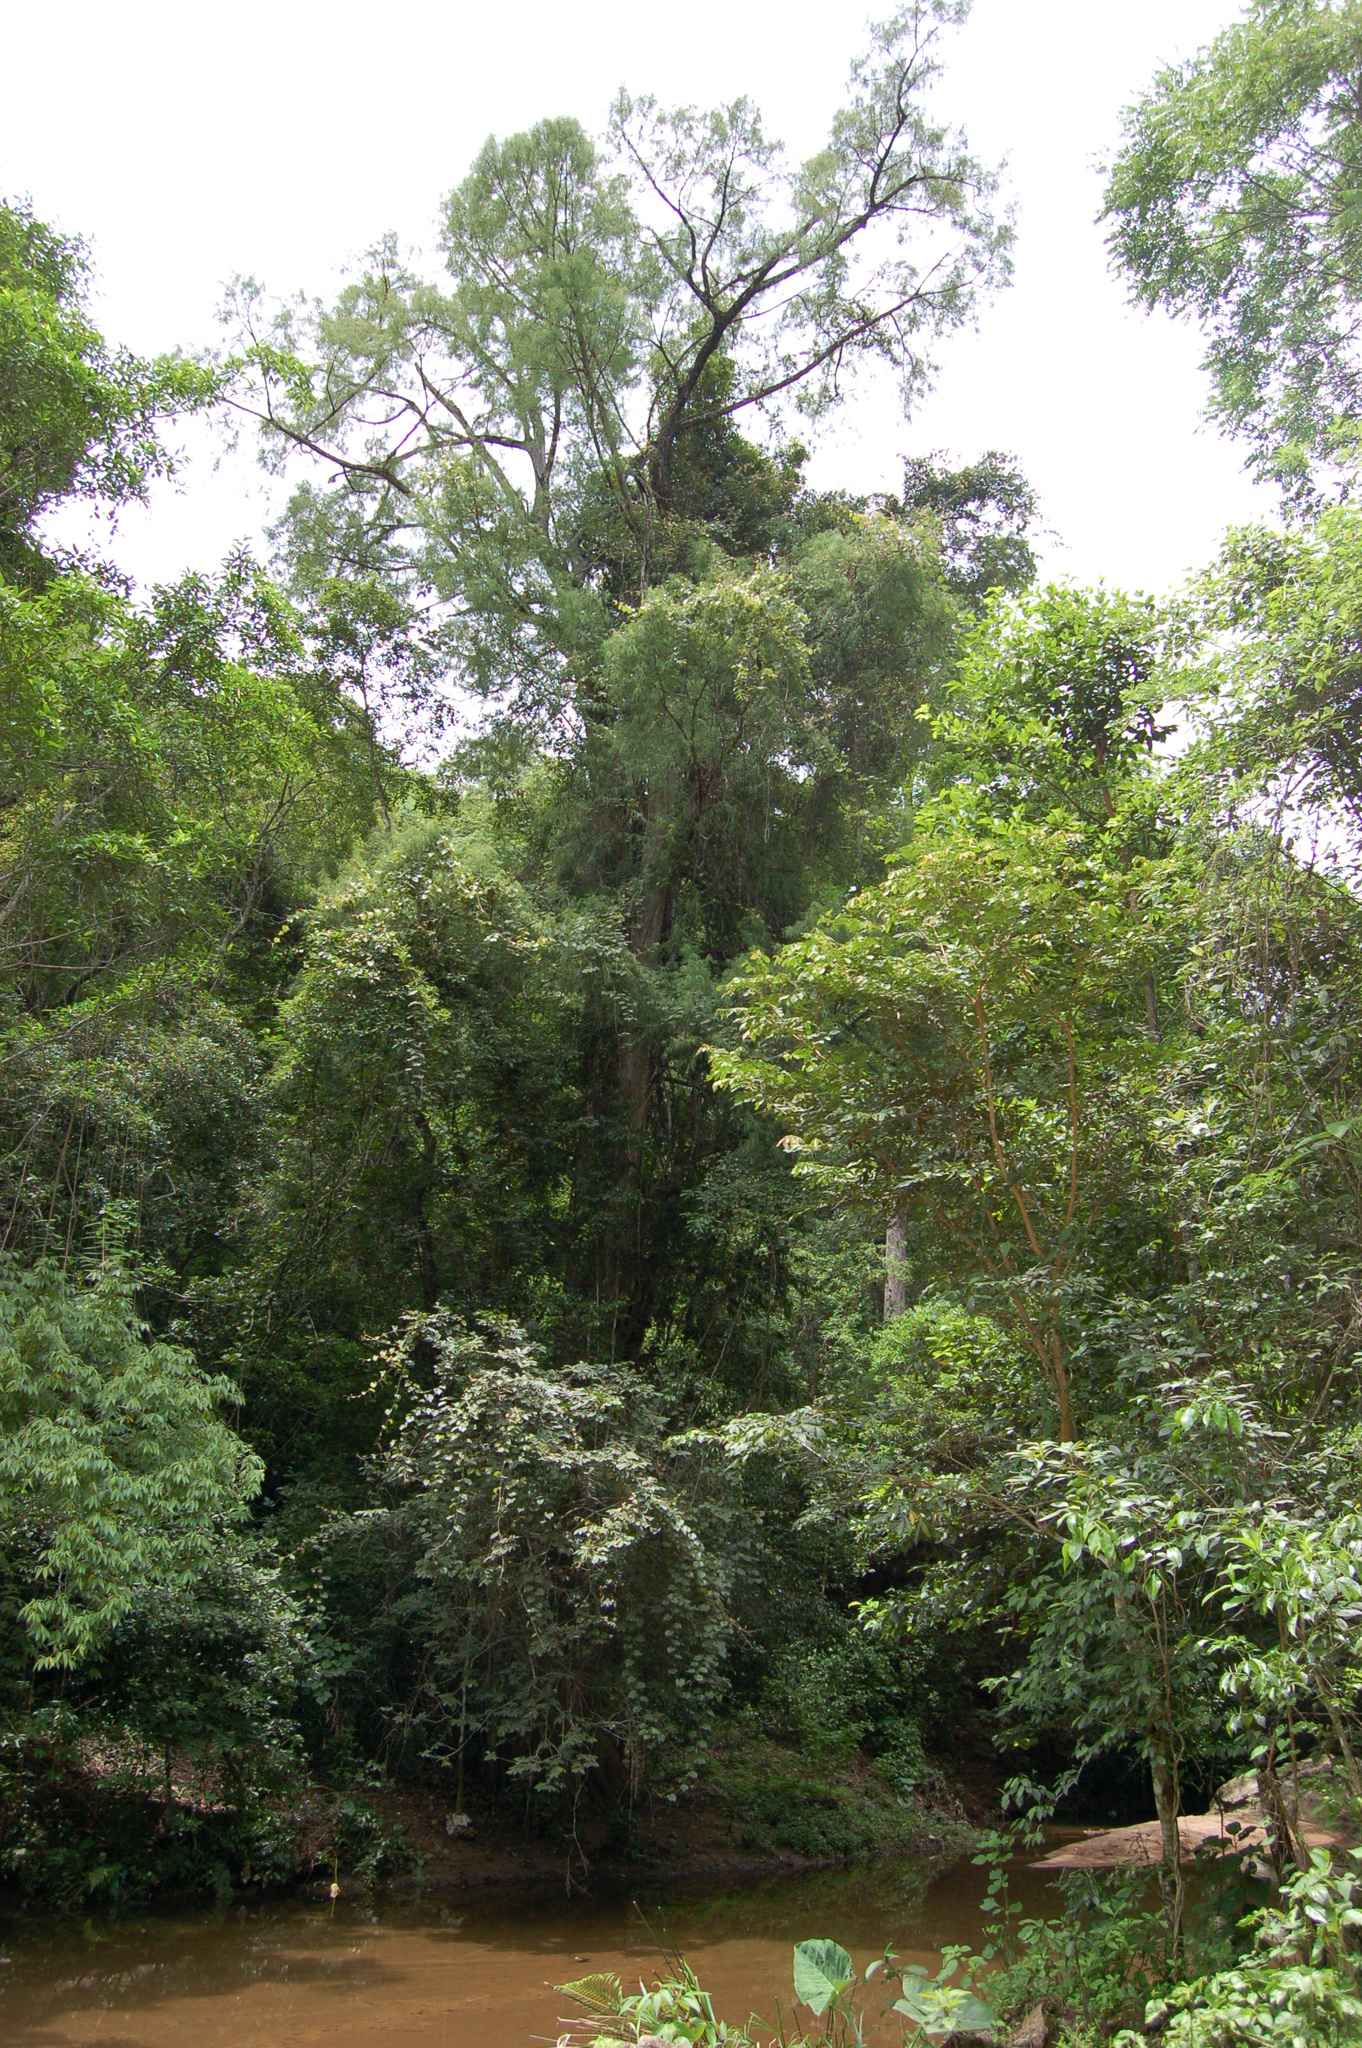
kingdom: Plantae
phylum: Tracheophyta
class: Pinopsida
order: Pinales
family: Cupressaceae
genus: Taxodium
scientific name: Taxodium mucronatum
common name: Montezume bald cypress
